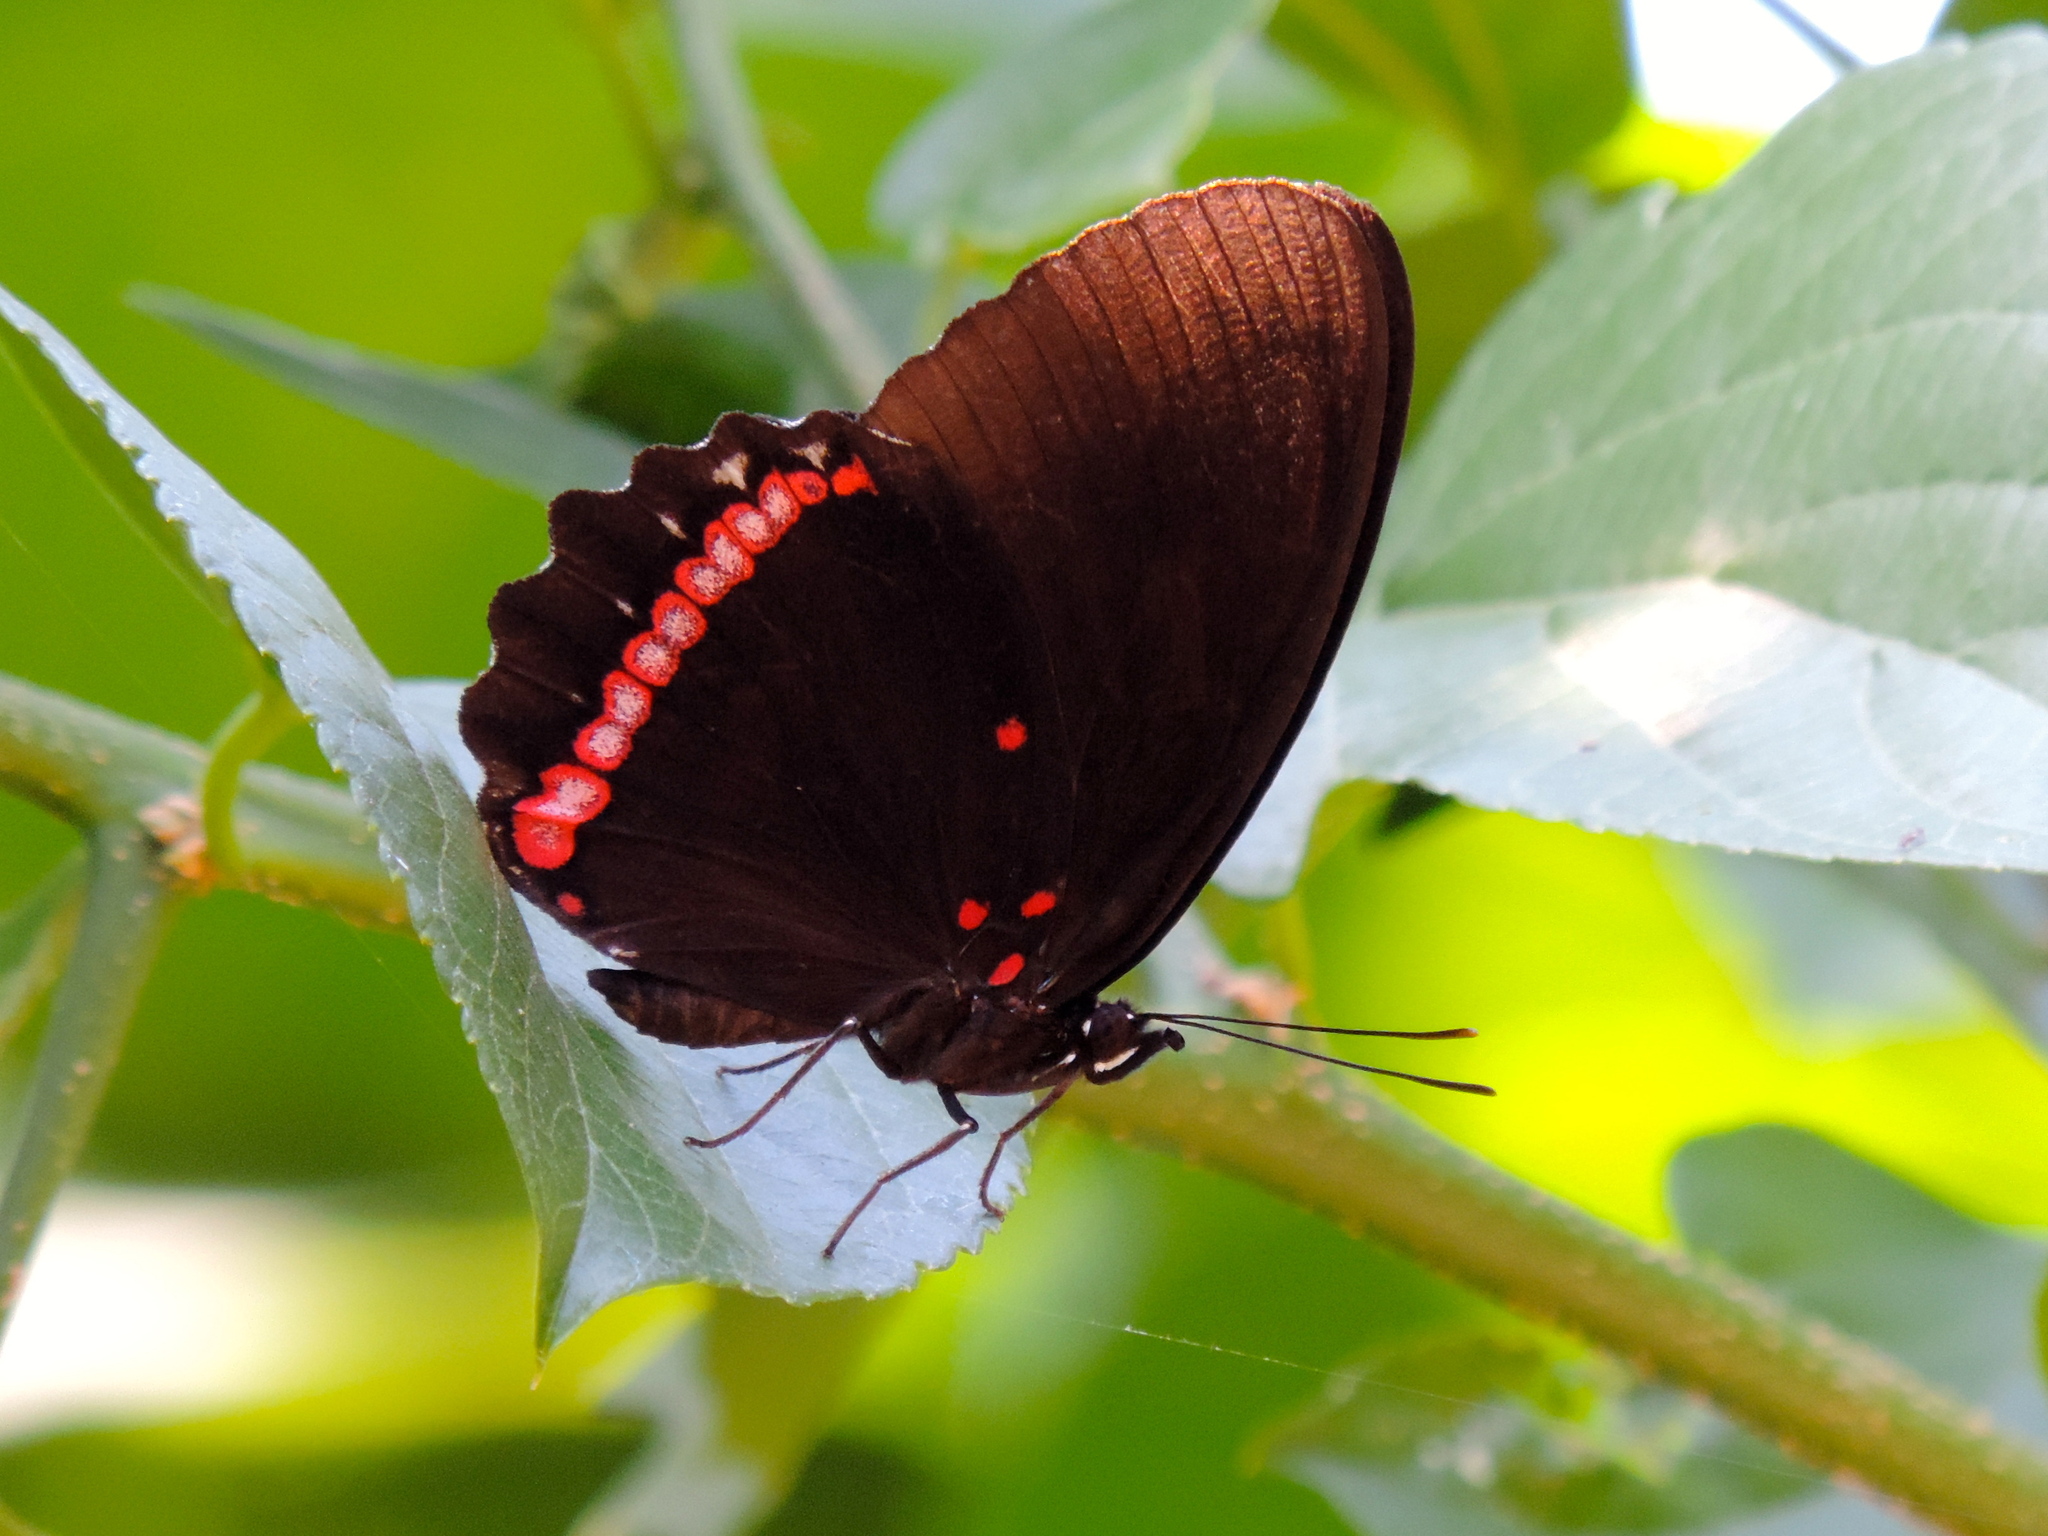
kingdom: Animalia
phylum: Arthropoda
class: Insecta
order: Lepidoptera
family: Nymphalidae
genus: Biblis
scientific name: Biblis aganisa
